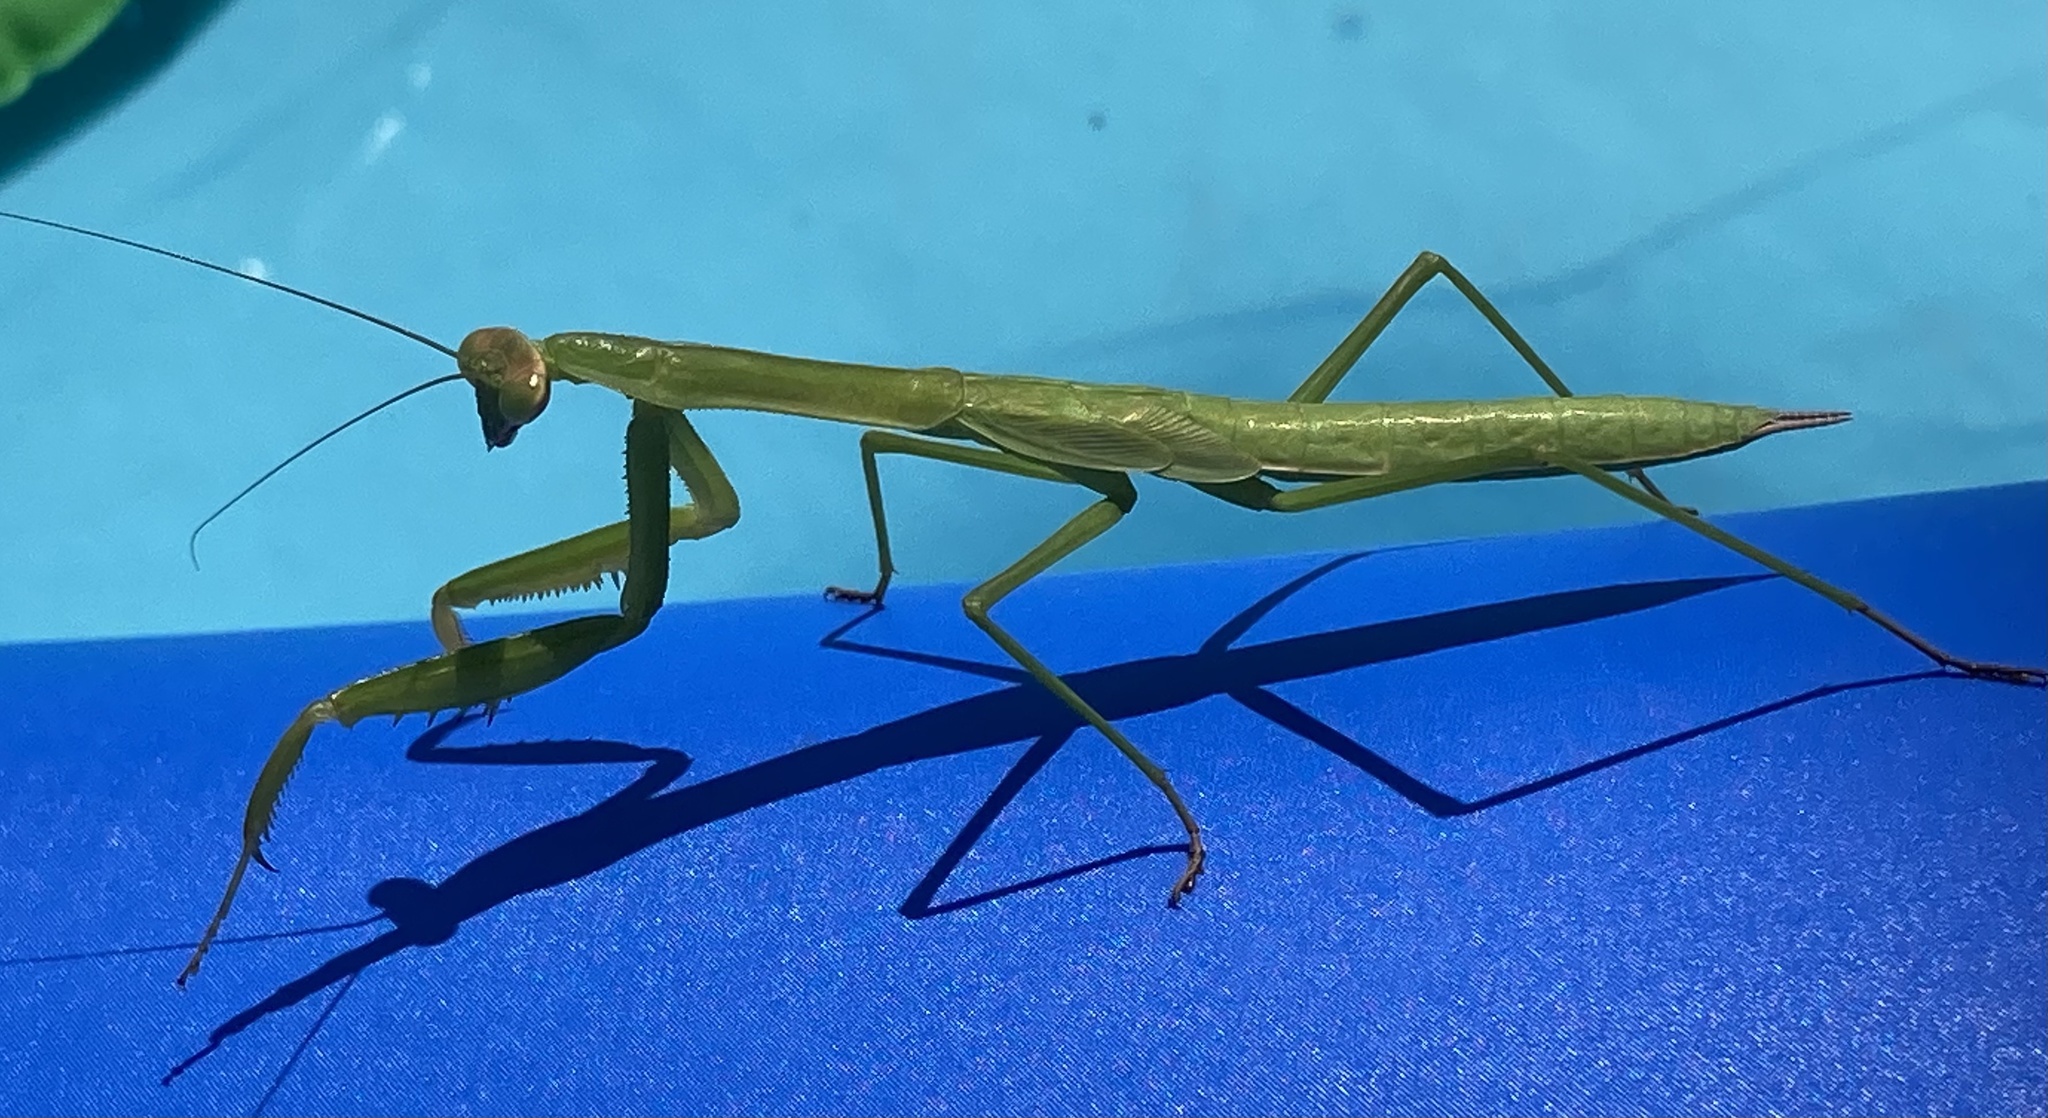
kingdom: Animalia
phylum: Arthropoda
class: Insecta
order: Mantodea
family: Mantidae
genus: Tenodera
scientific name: Tenodera sinensis
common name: Chinese mantis
